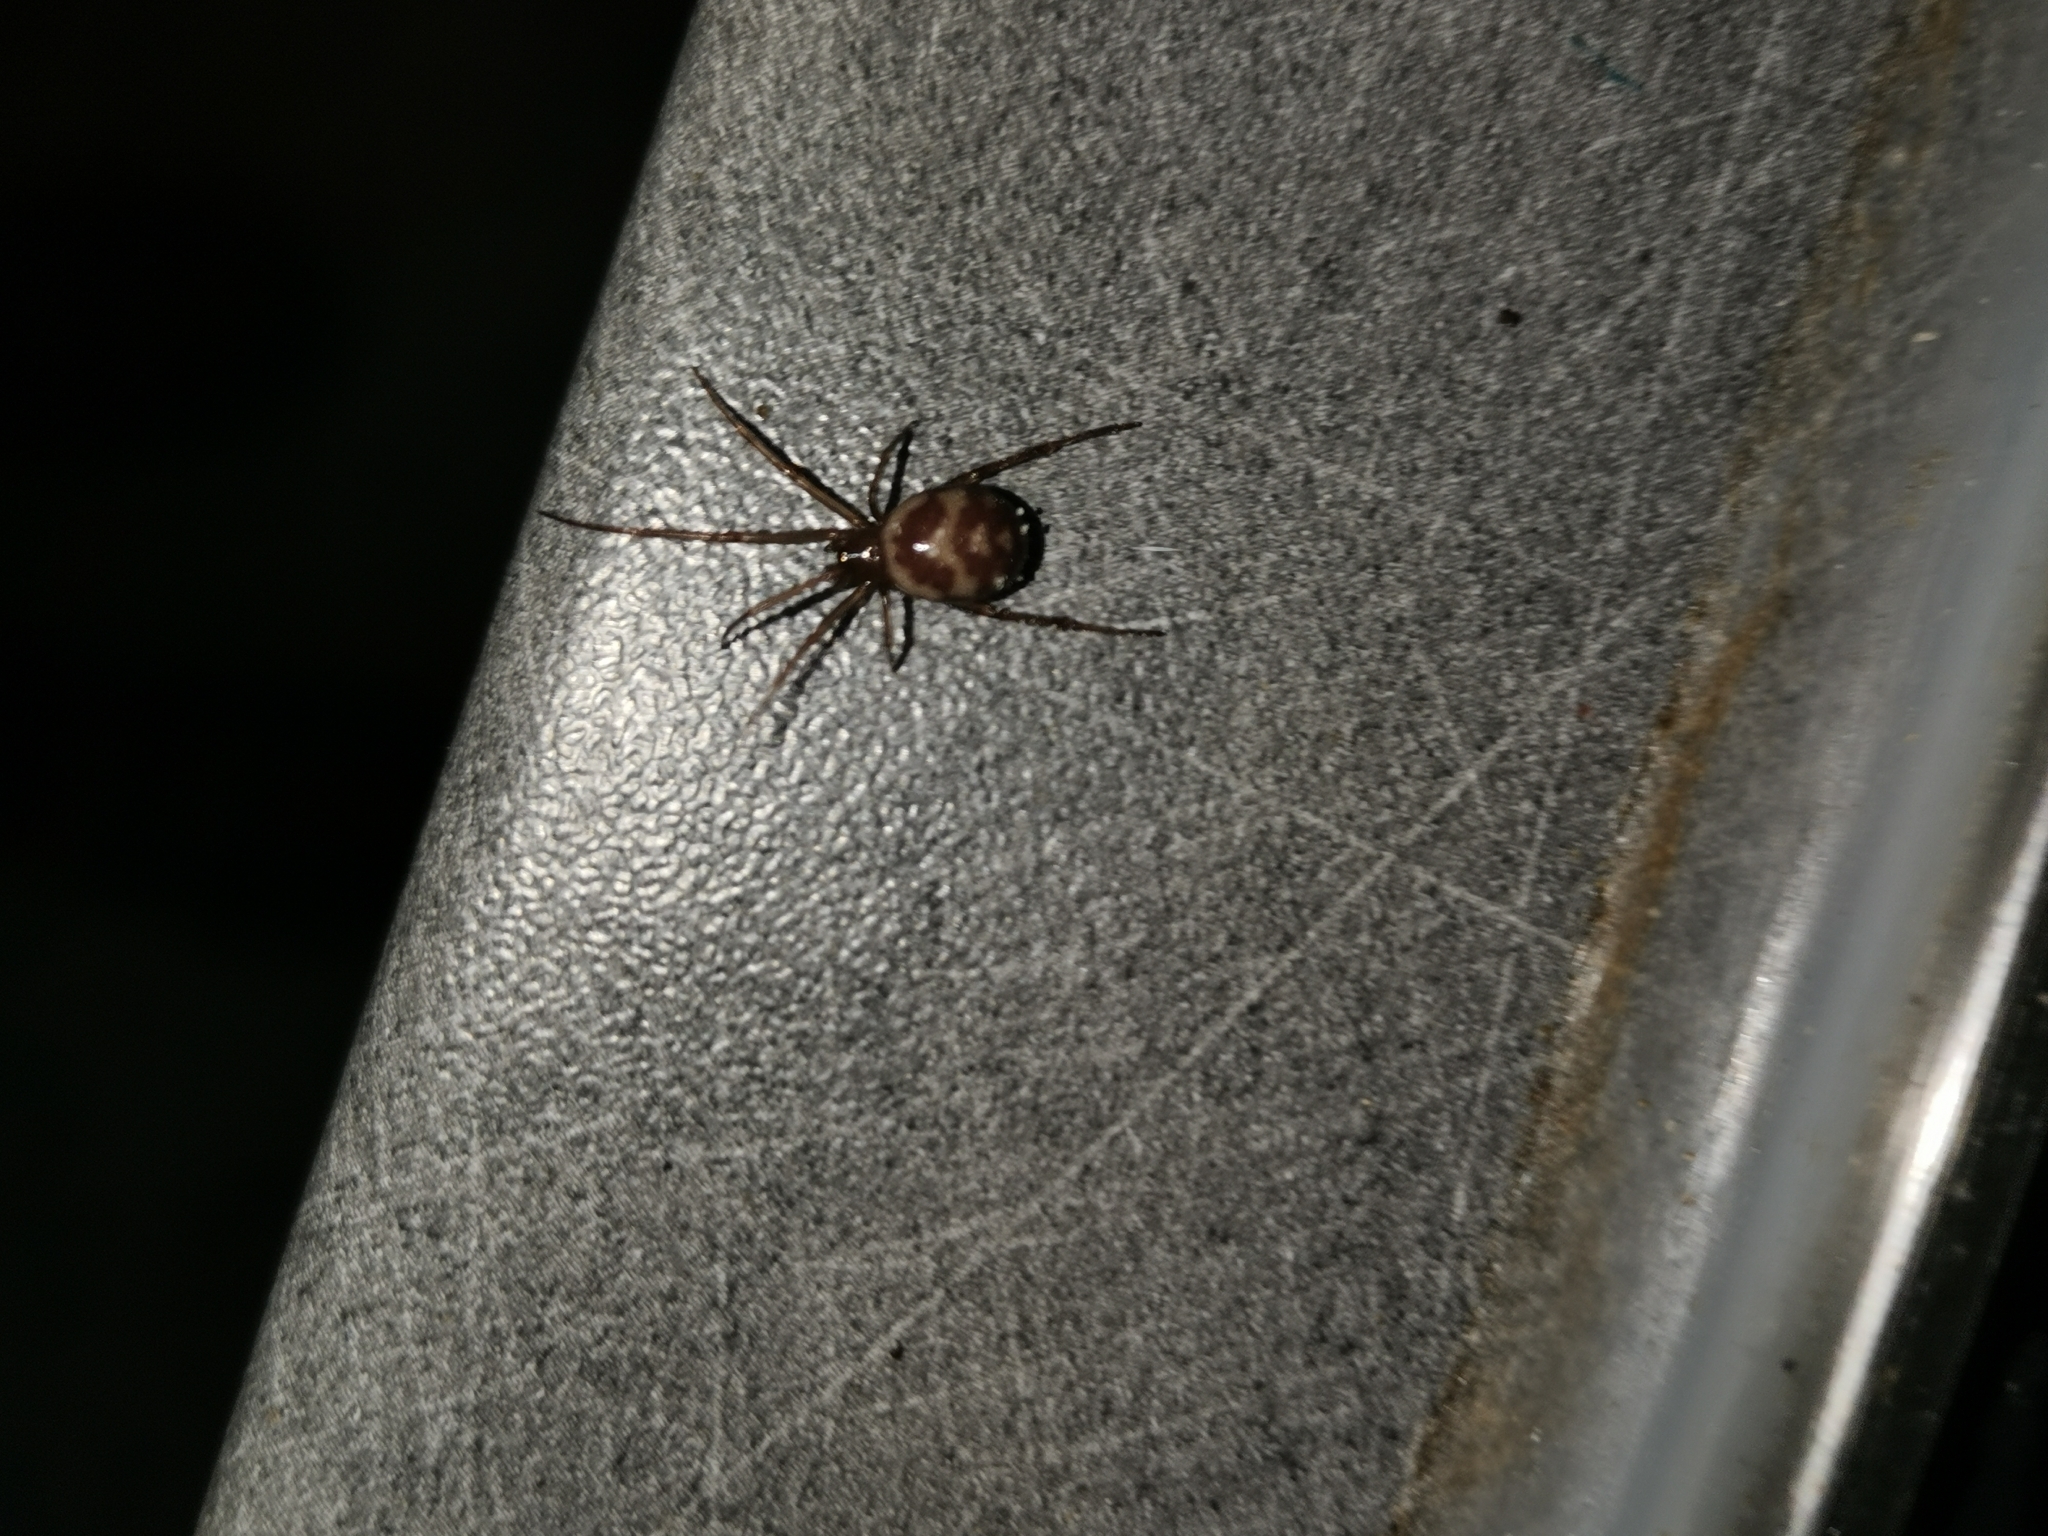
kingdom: Animalia
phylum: Arthropoda
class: Arachnida
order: Araneae
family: Theridiidae
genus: Steatoda
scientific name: Steatoda grossa
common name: False black widow
